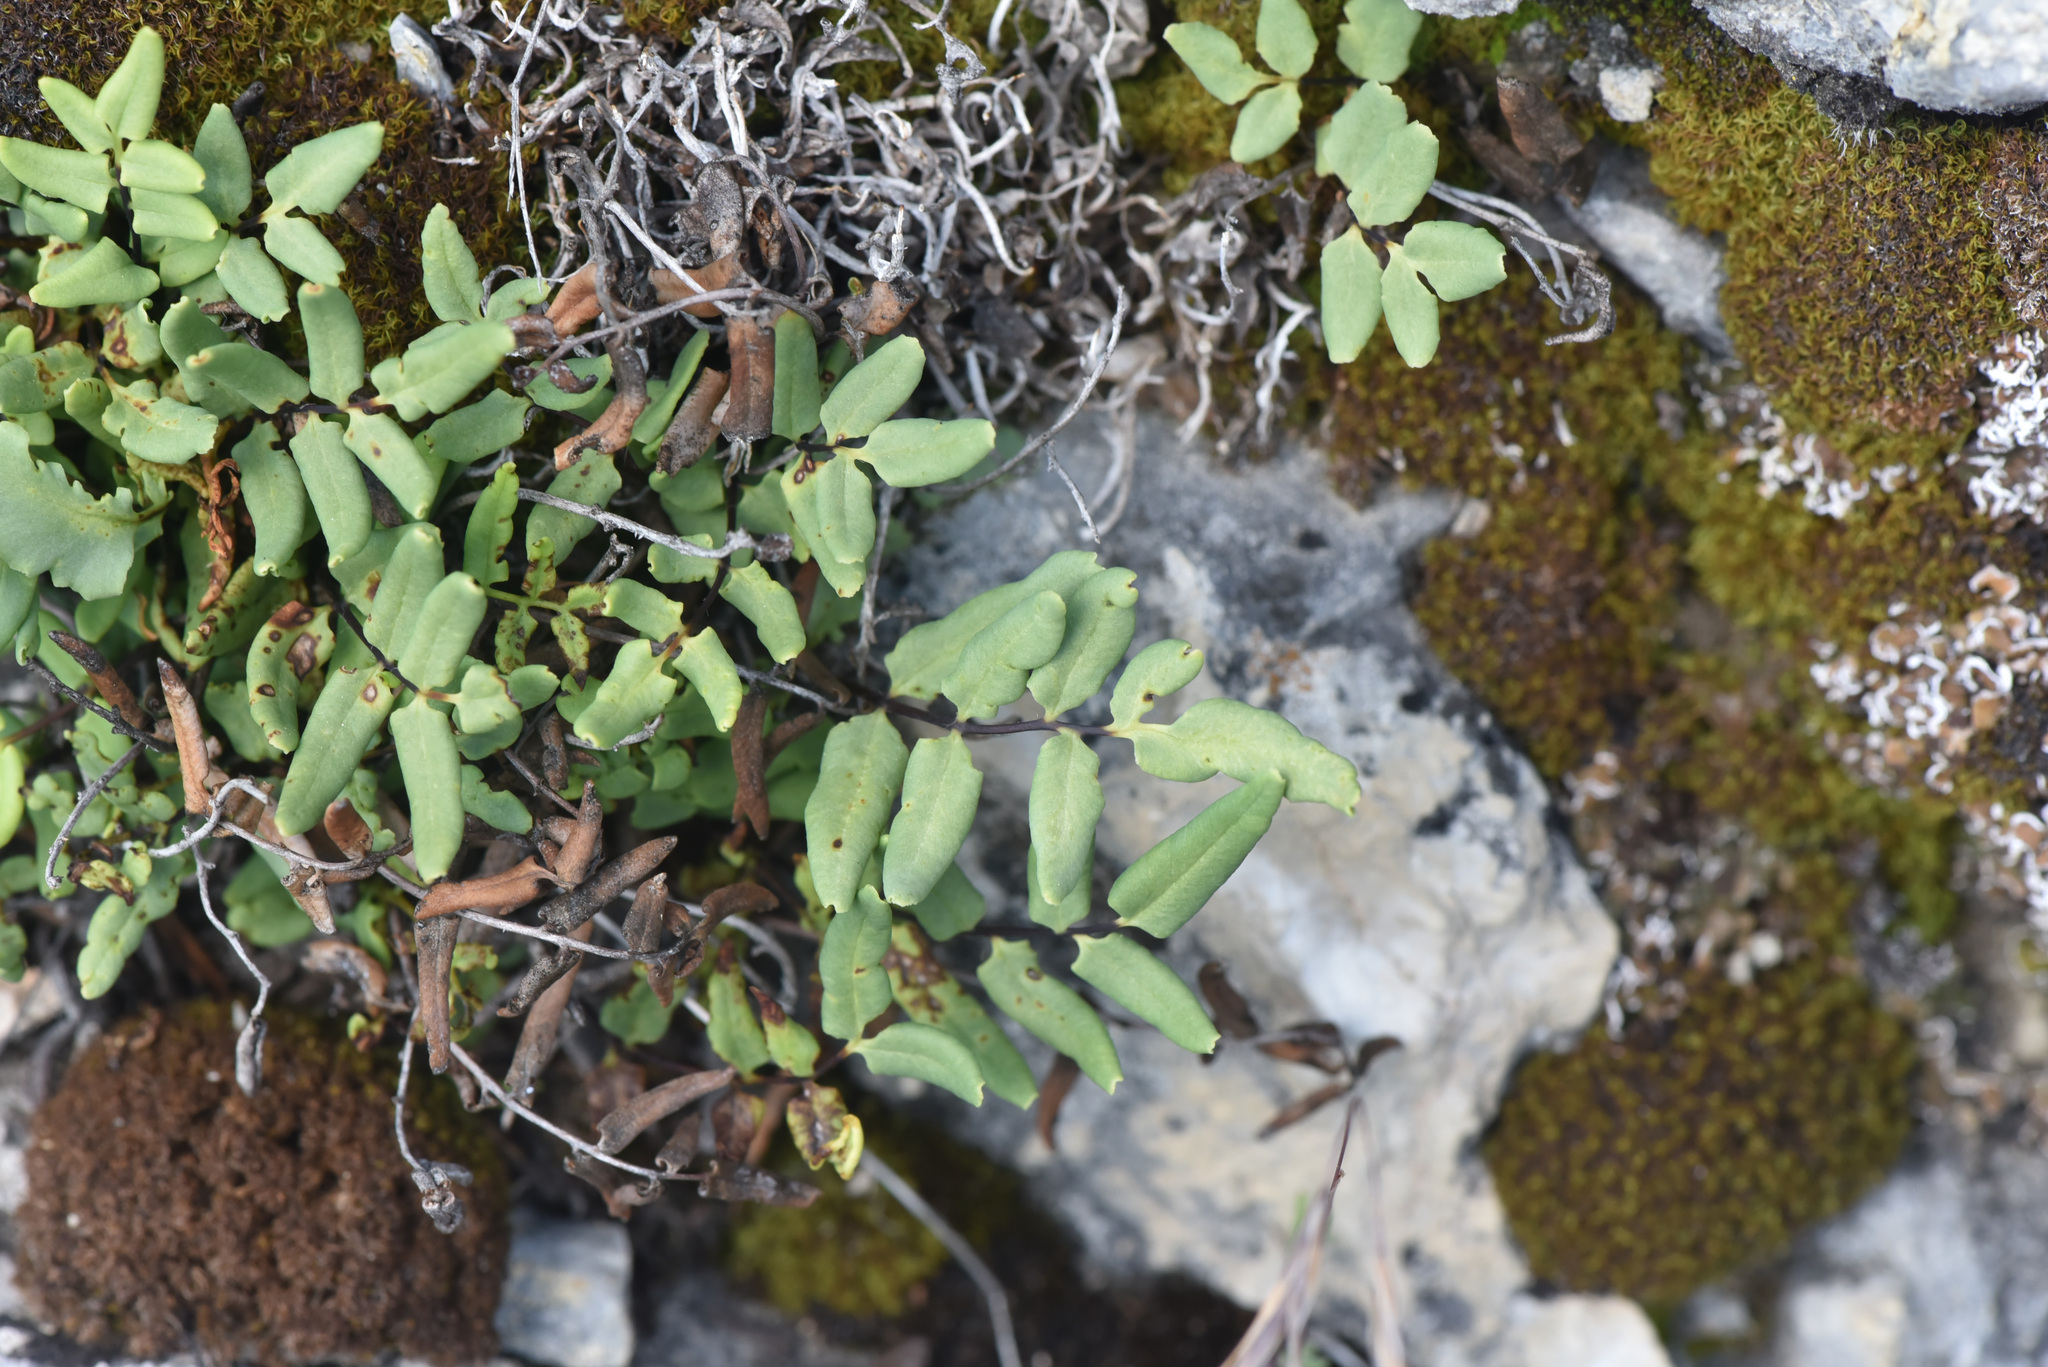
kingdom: Plantae
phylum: Tracheophyta
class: Polypodiopsida
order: Polypodiales
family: Pteridaceae
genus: Pellaea
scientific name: Pellaea glabella
